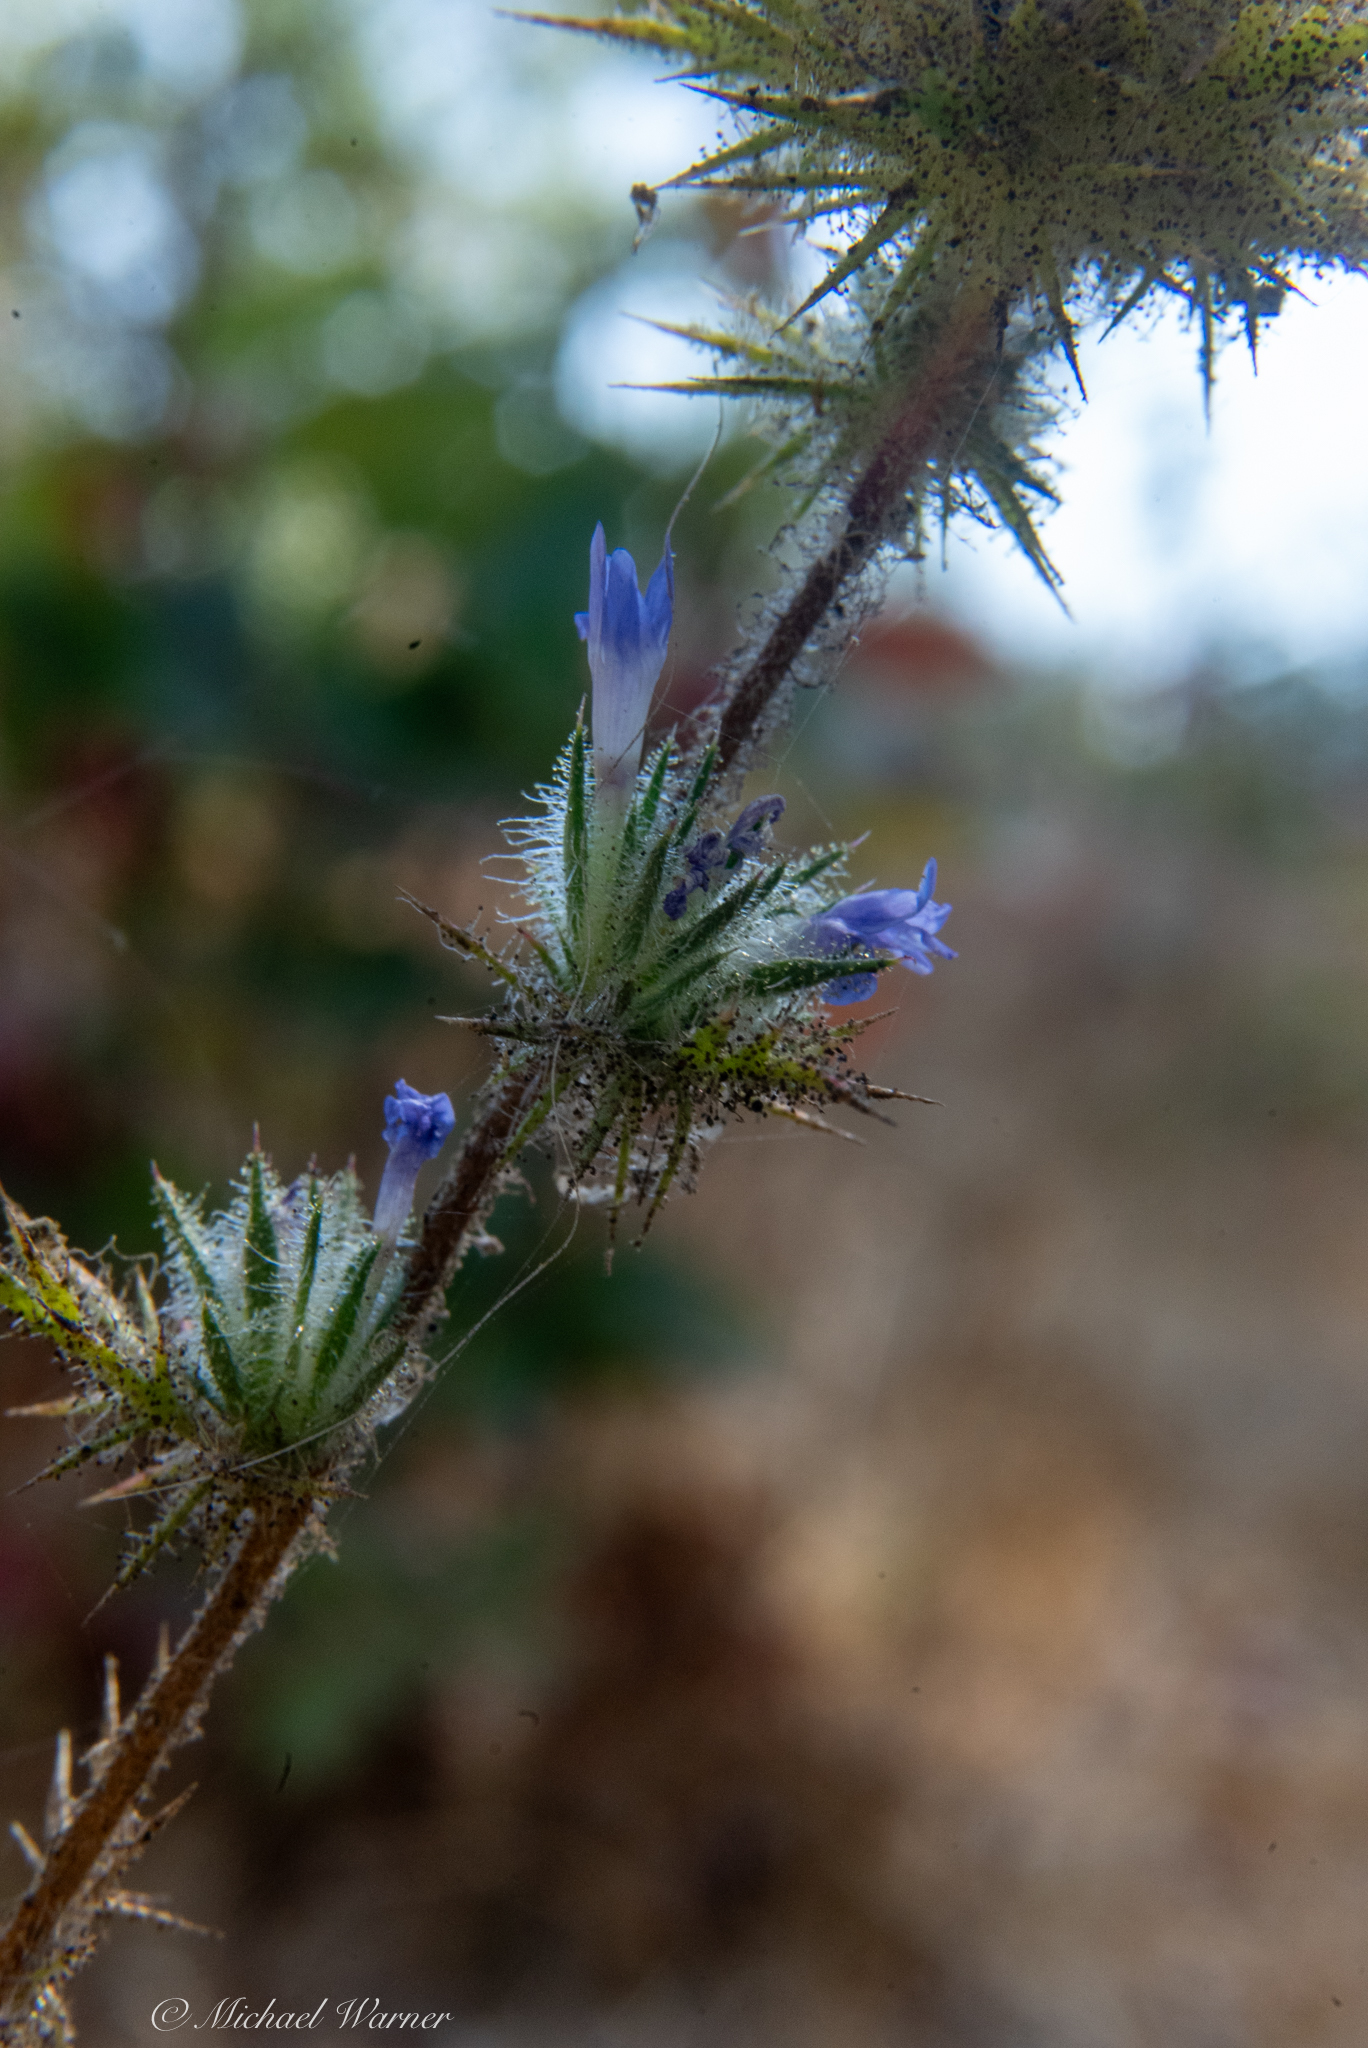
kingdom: Plantae
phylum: Tracheophyta
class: Magnoliopsida
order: Ericales
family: Polemoniaceae
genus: Navarretia
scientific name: Navarretia squarrosa
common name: Skunkweed
